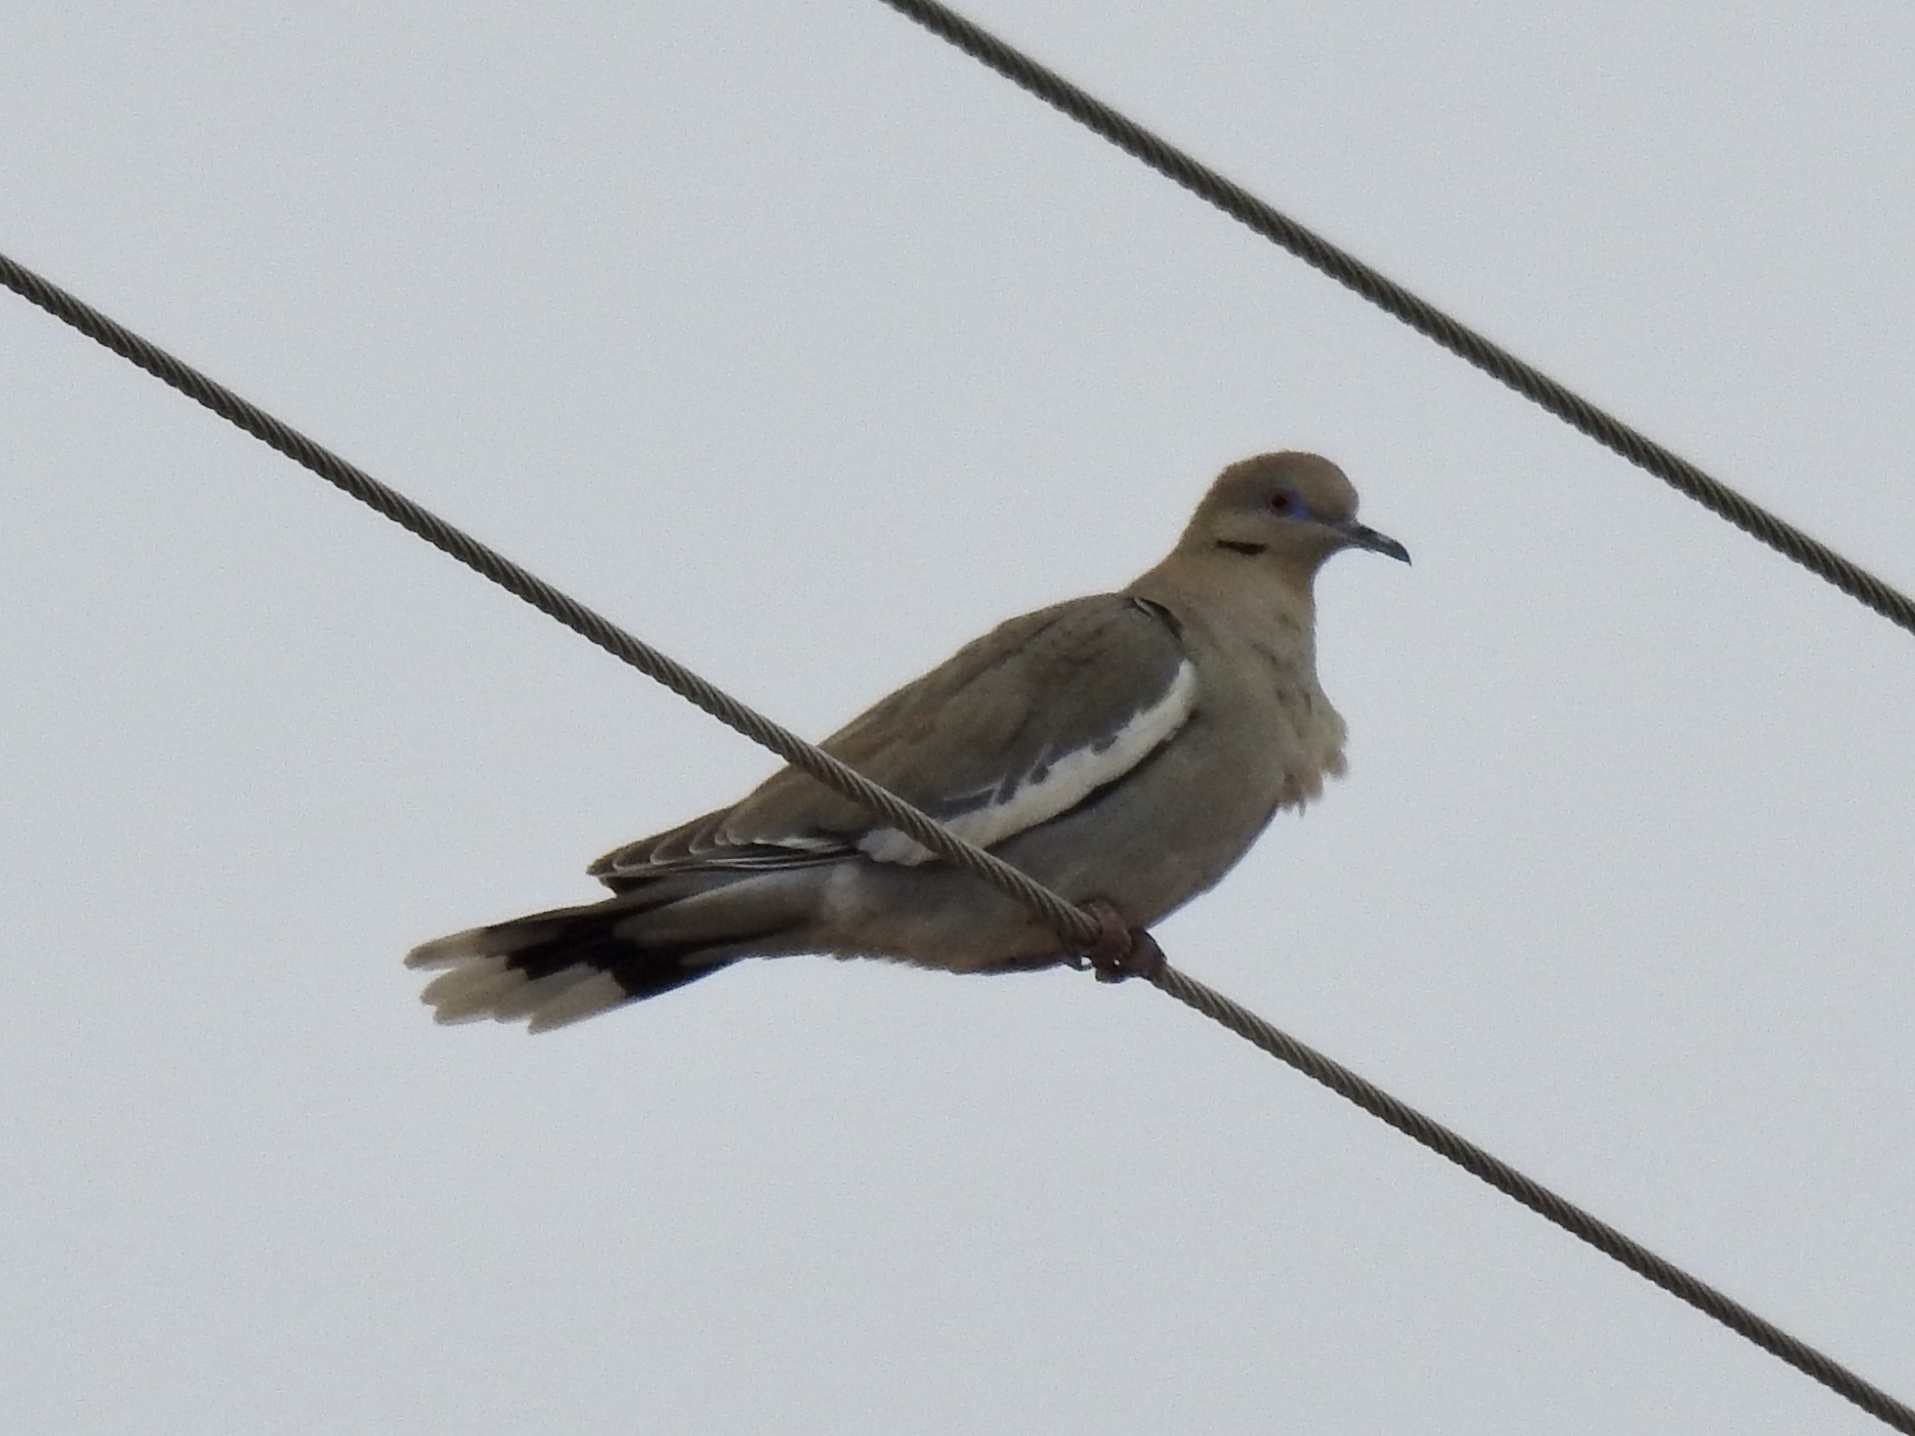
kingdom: Animalia
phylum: Chordata
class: Aves
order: Columbiformes
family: Columbidae
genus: Zenaida
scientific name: Zenaida asiatica
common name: White-winged dove
